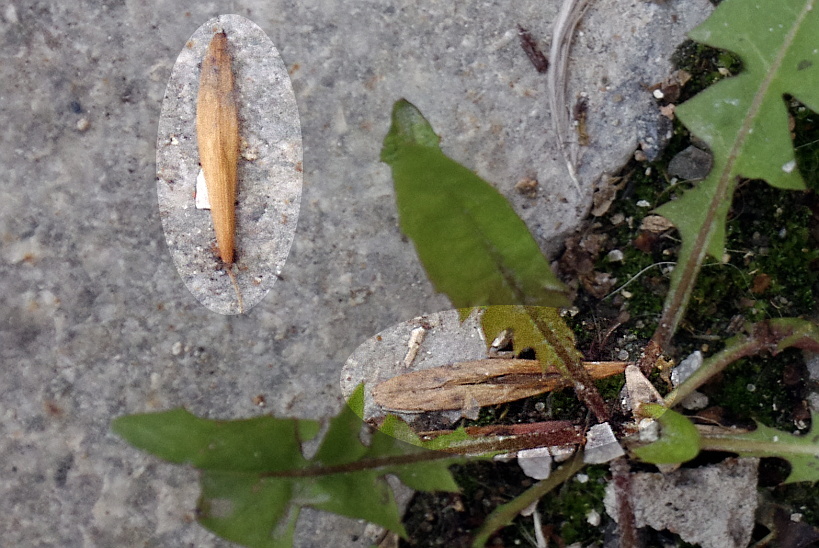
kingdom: Plantae
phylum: Tracheophyta
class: Magnoliopsida
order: Lamiales
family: Oleaceae
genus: Fraxinus
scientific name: Fraxinus pennsylvanica
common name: Green ash
